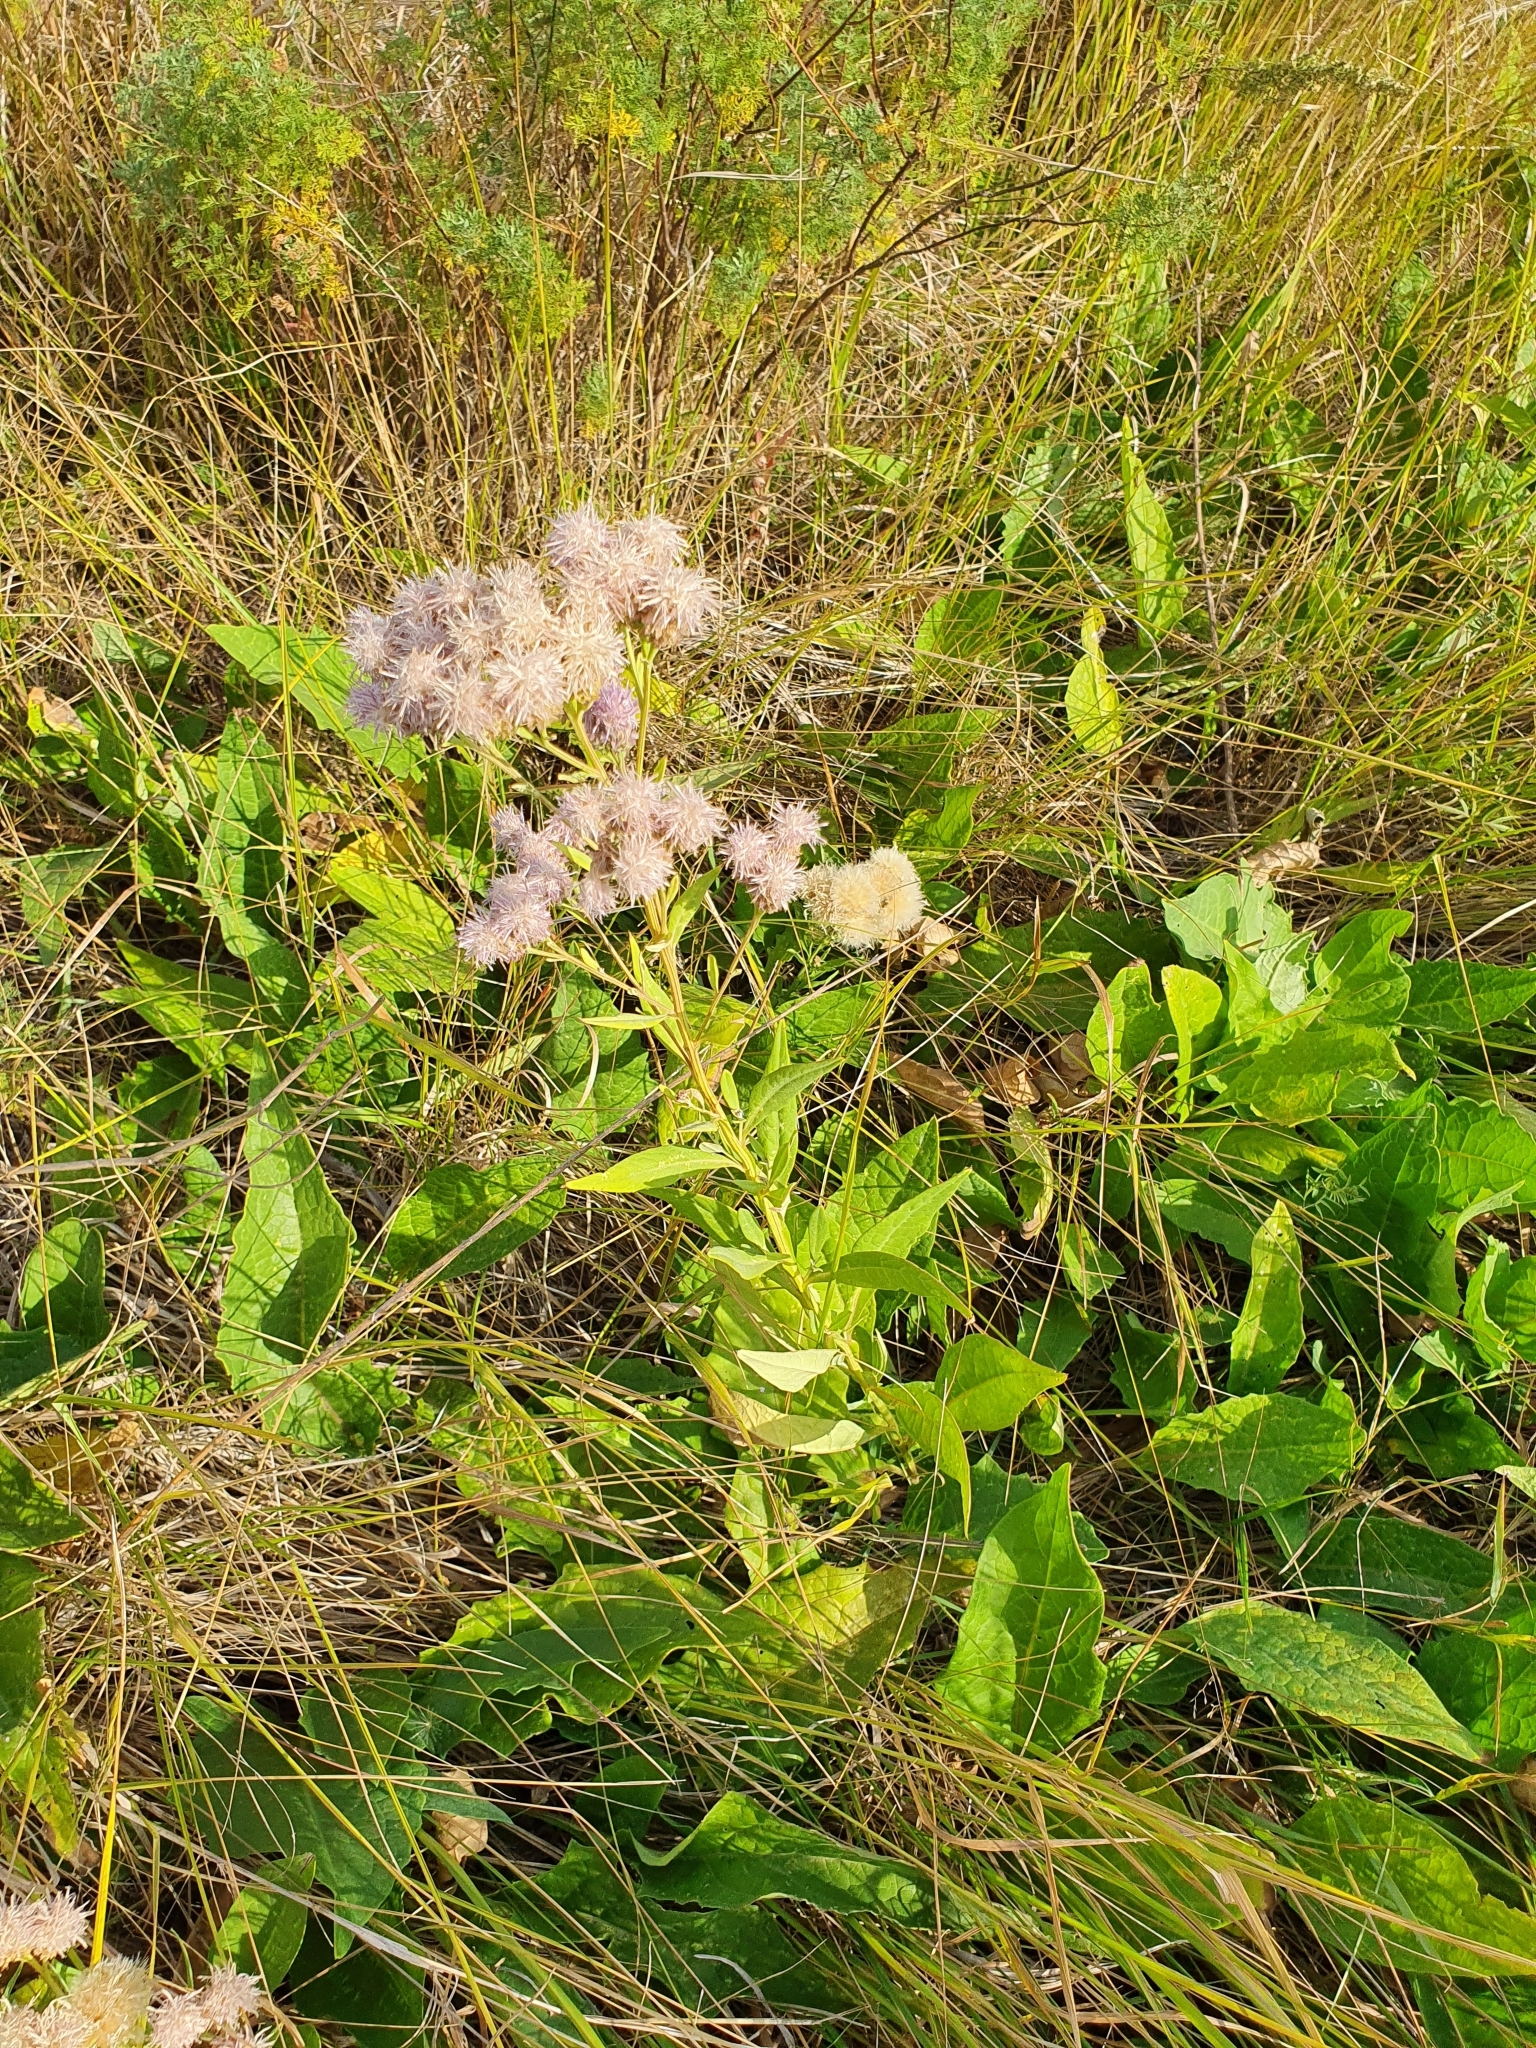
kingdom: Plantae
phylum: Tracheophyta
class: Magnoliopsida
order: Asterales
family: Asteraceae
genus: Saussurea
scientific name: Saussurea amara
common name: Alberta sawwort
